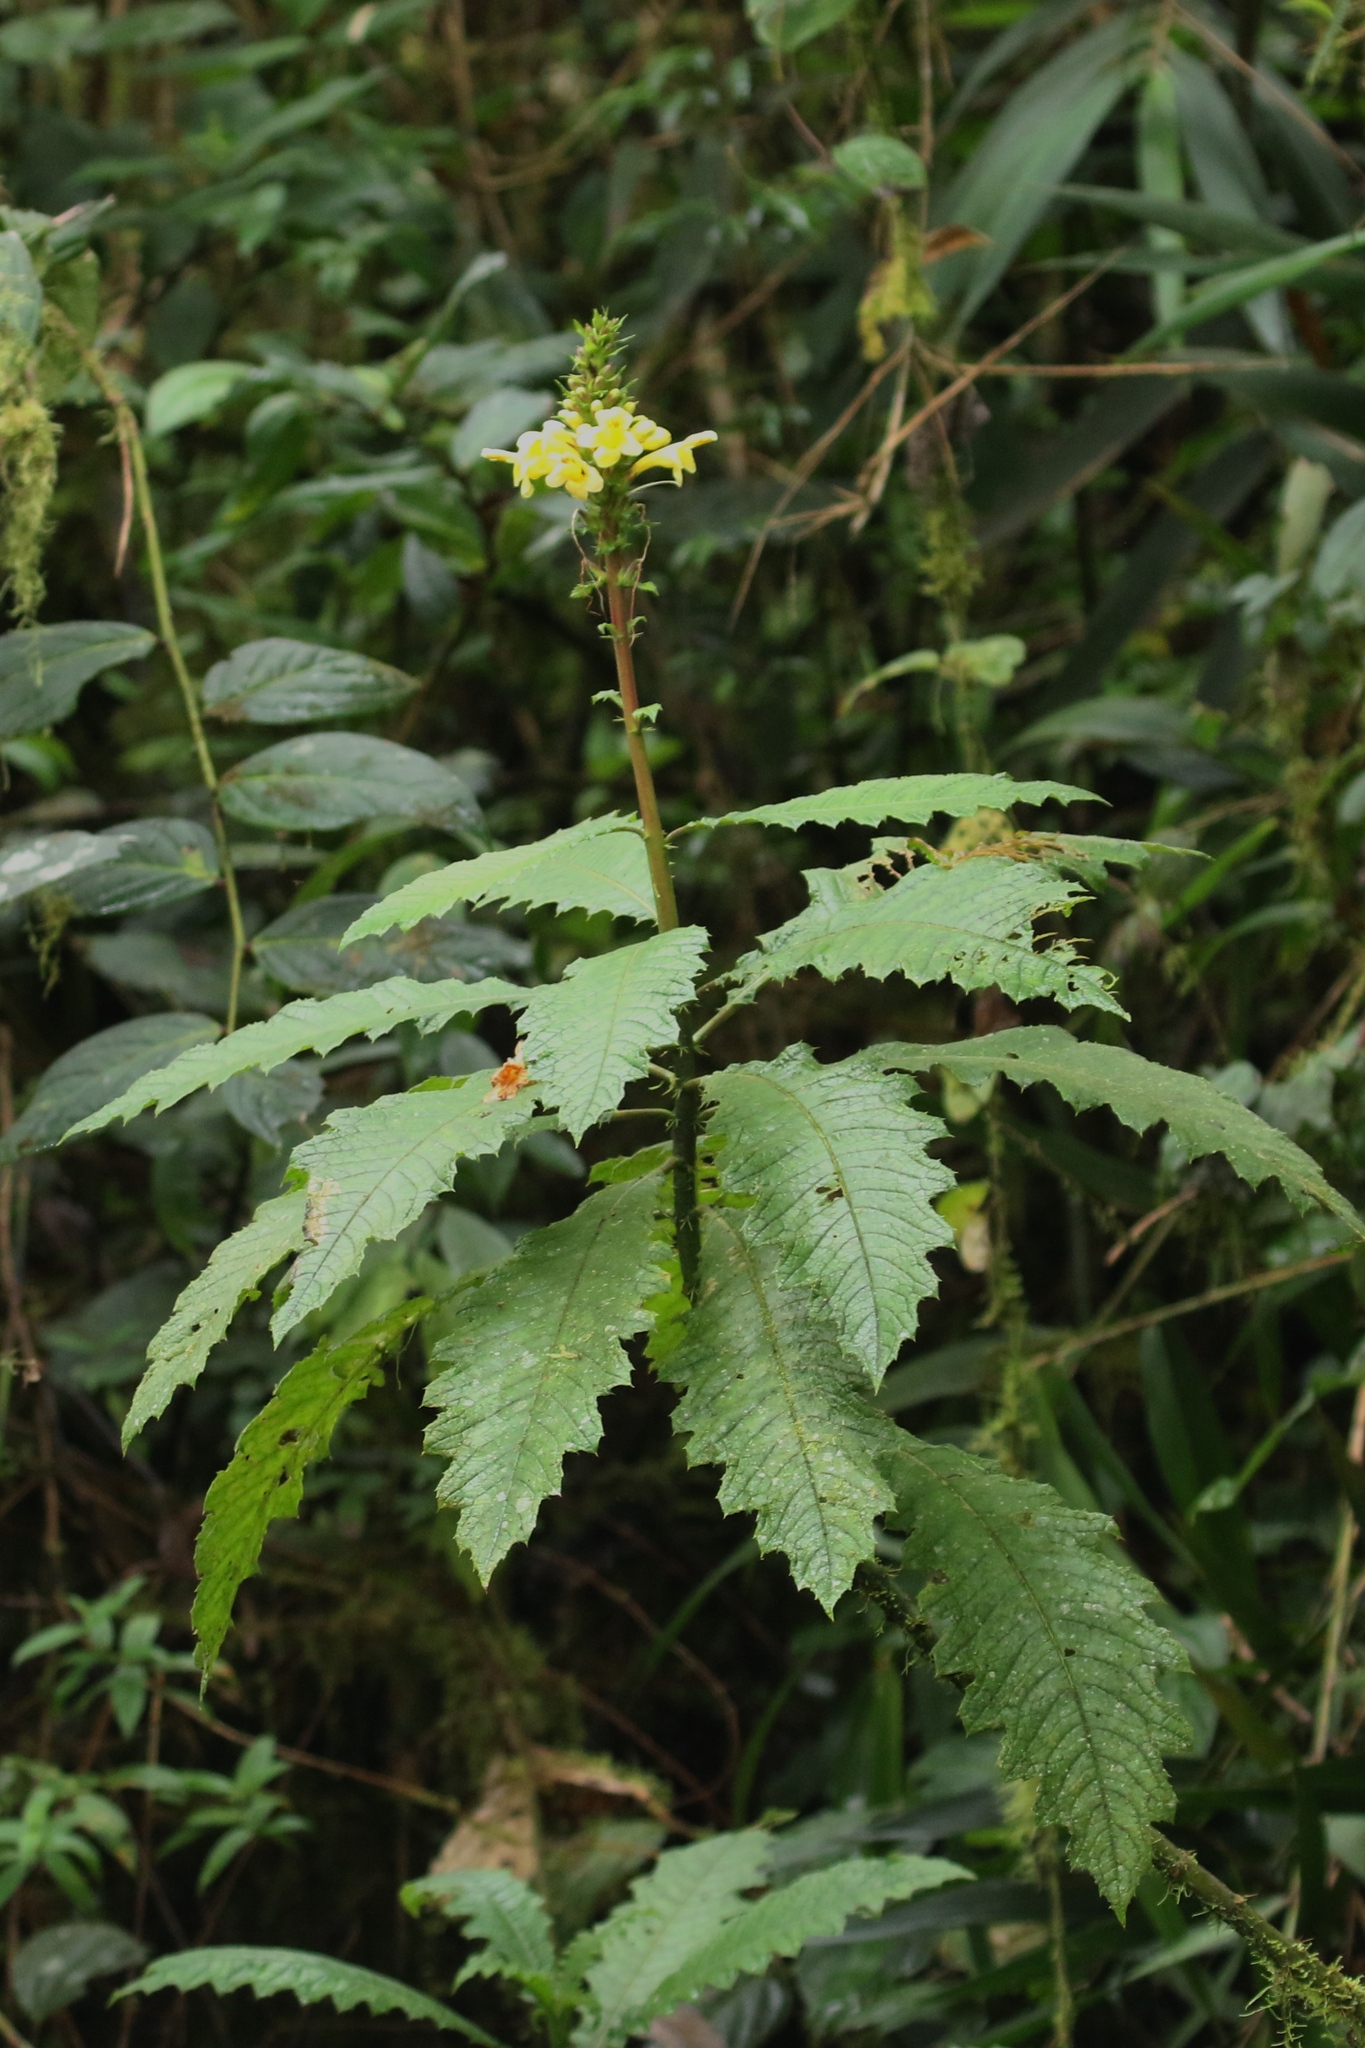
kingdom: Plantae
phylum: Tracheophyta
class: Magnoliopsida
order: Lamiales
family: Acanthaceae
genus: Aphelandra
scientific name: Aphelandra acanthus
